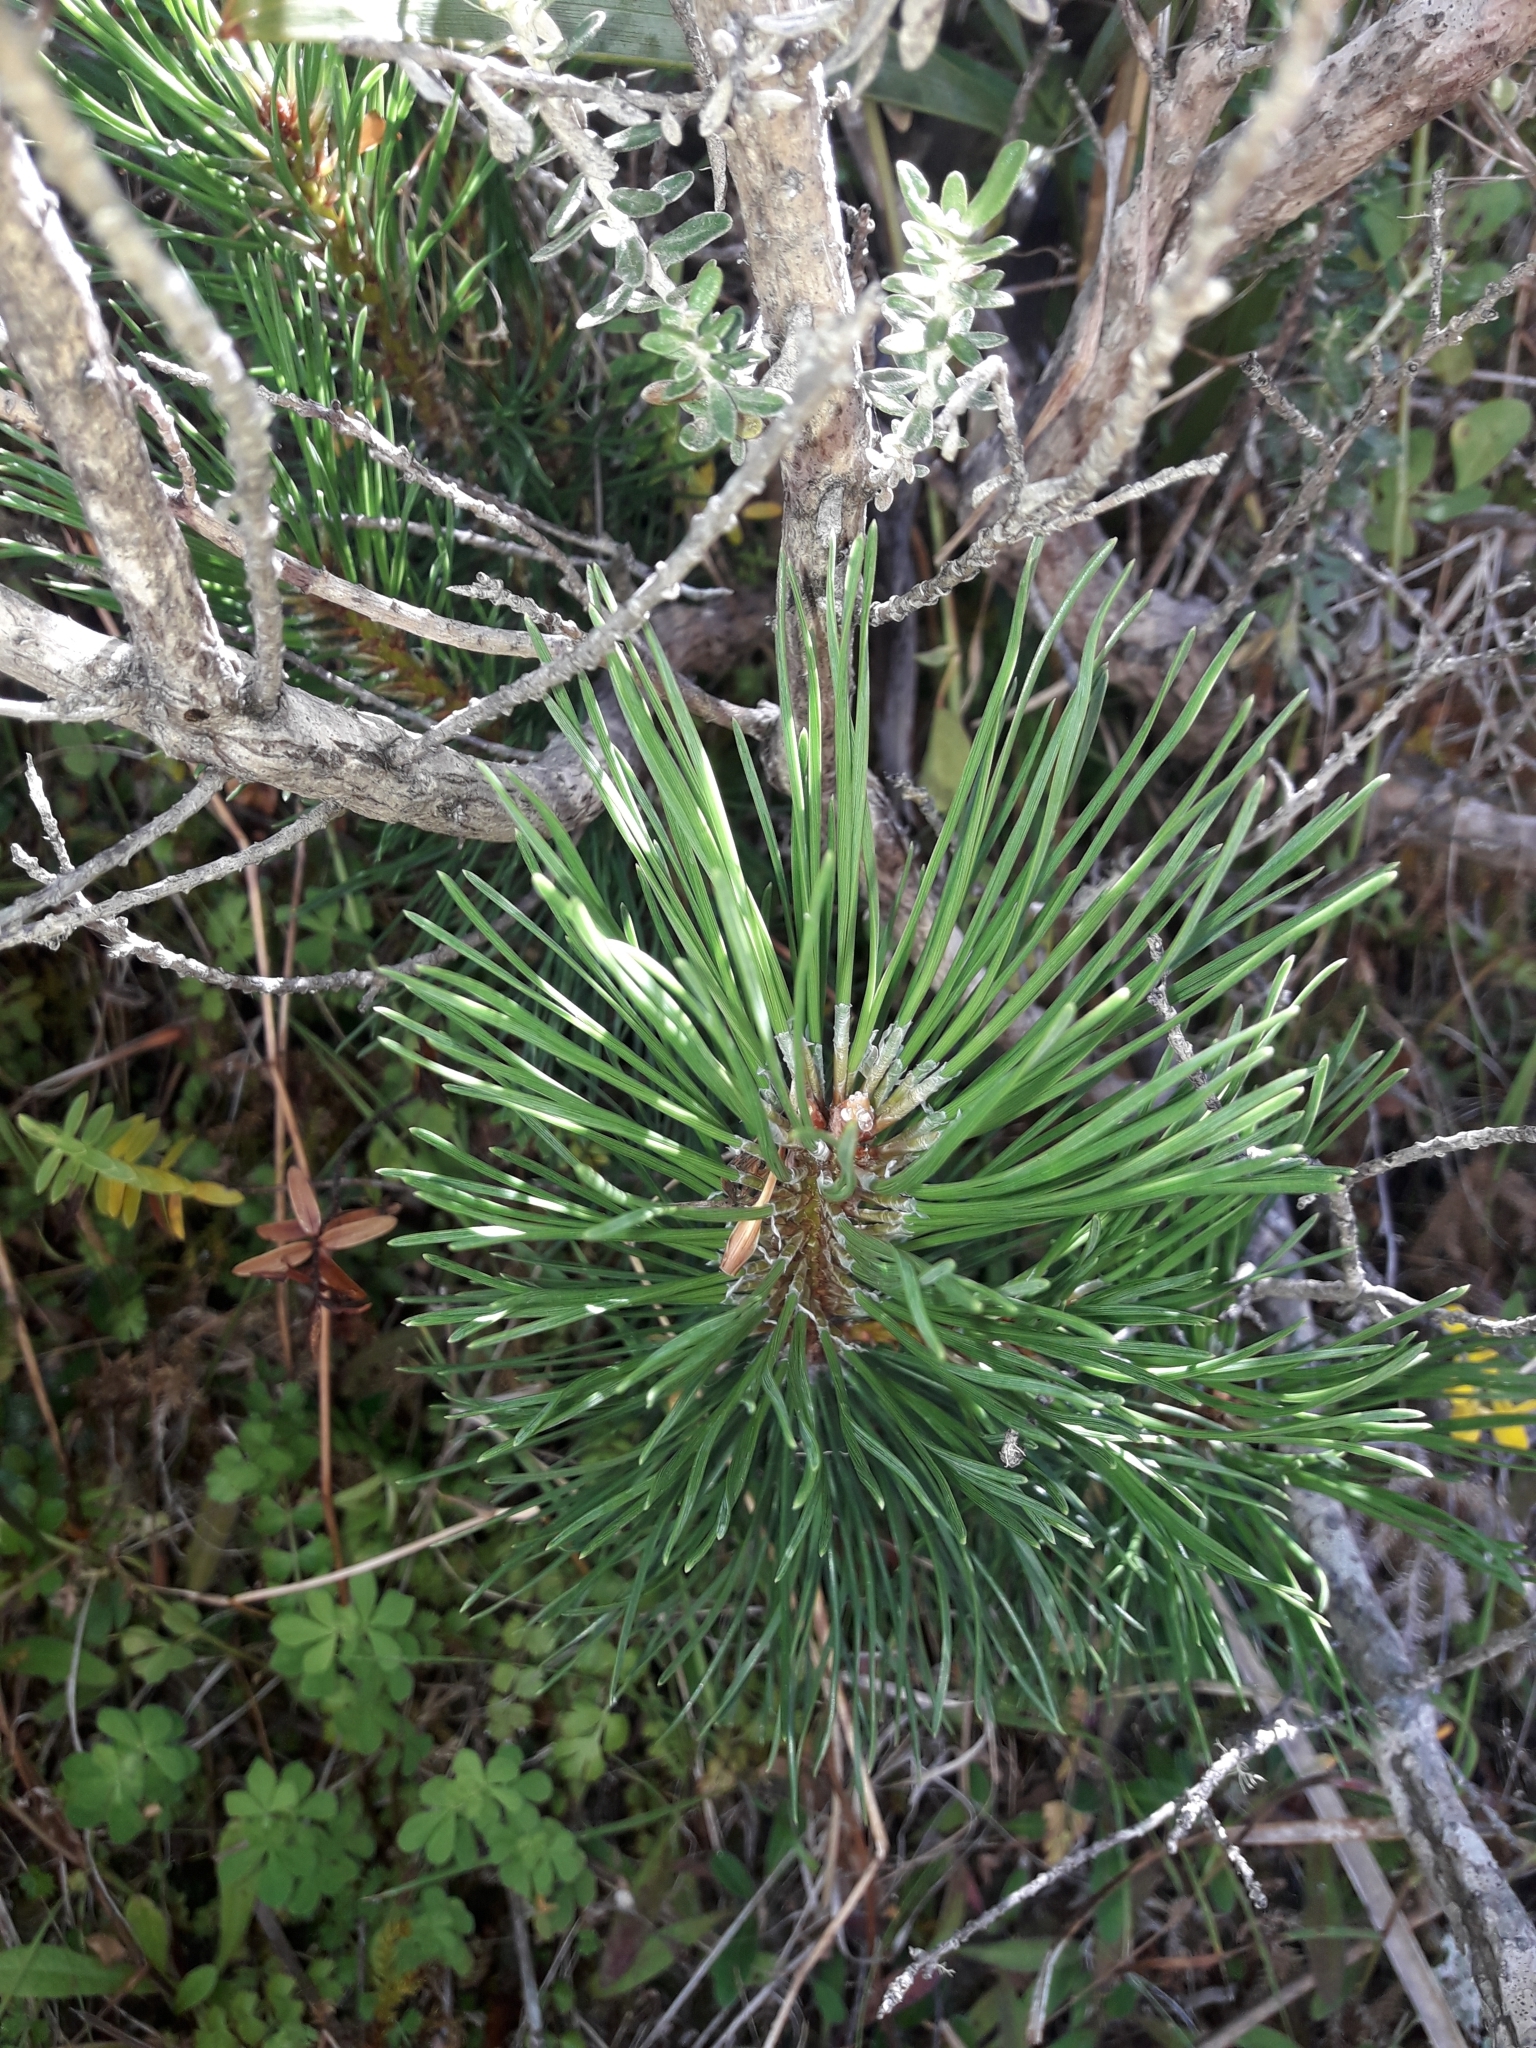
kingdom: Plantae
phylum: Tracheophyta
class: Pinopsida
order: Pinales
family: Pinaceae
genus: Pinus
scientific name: Pinus contorta
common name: Lodgepole pine
